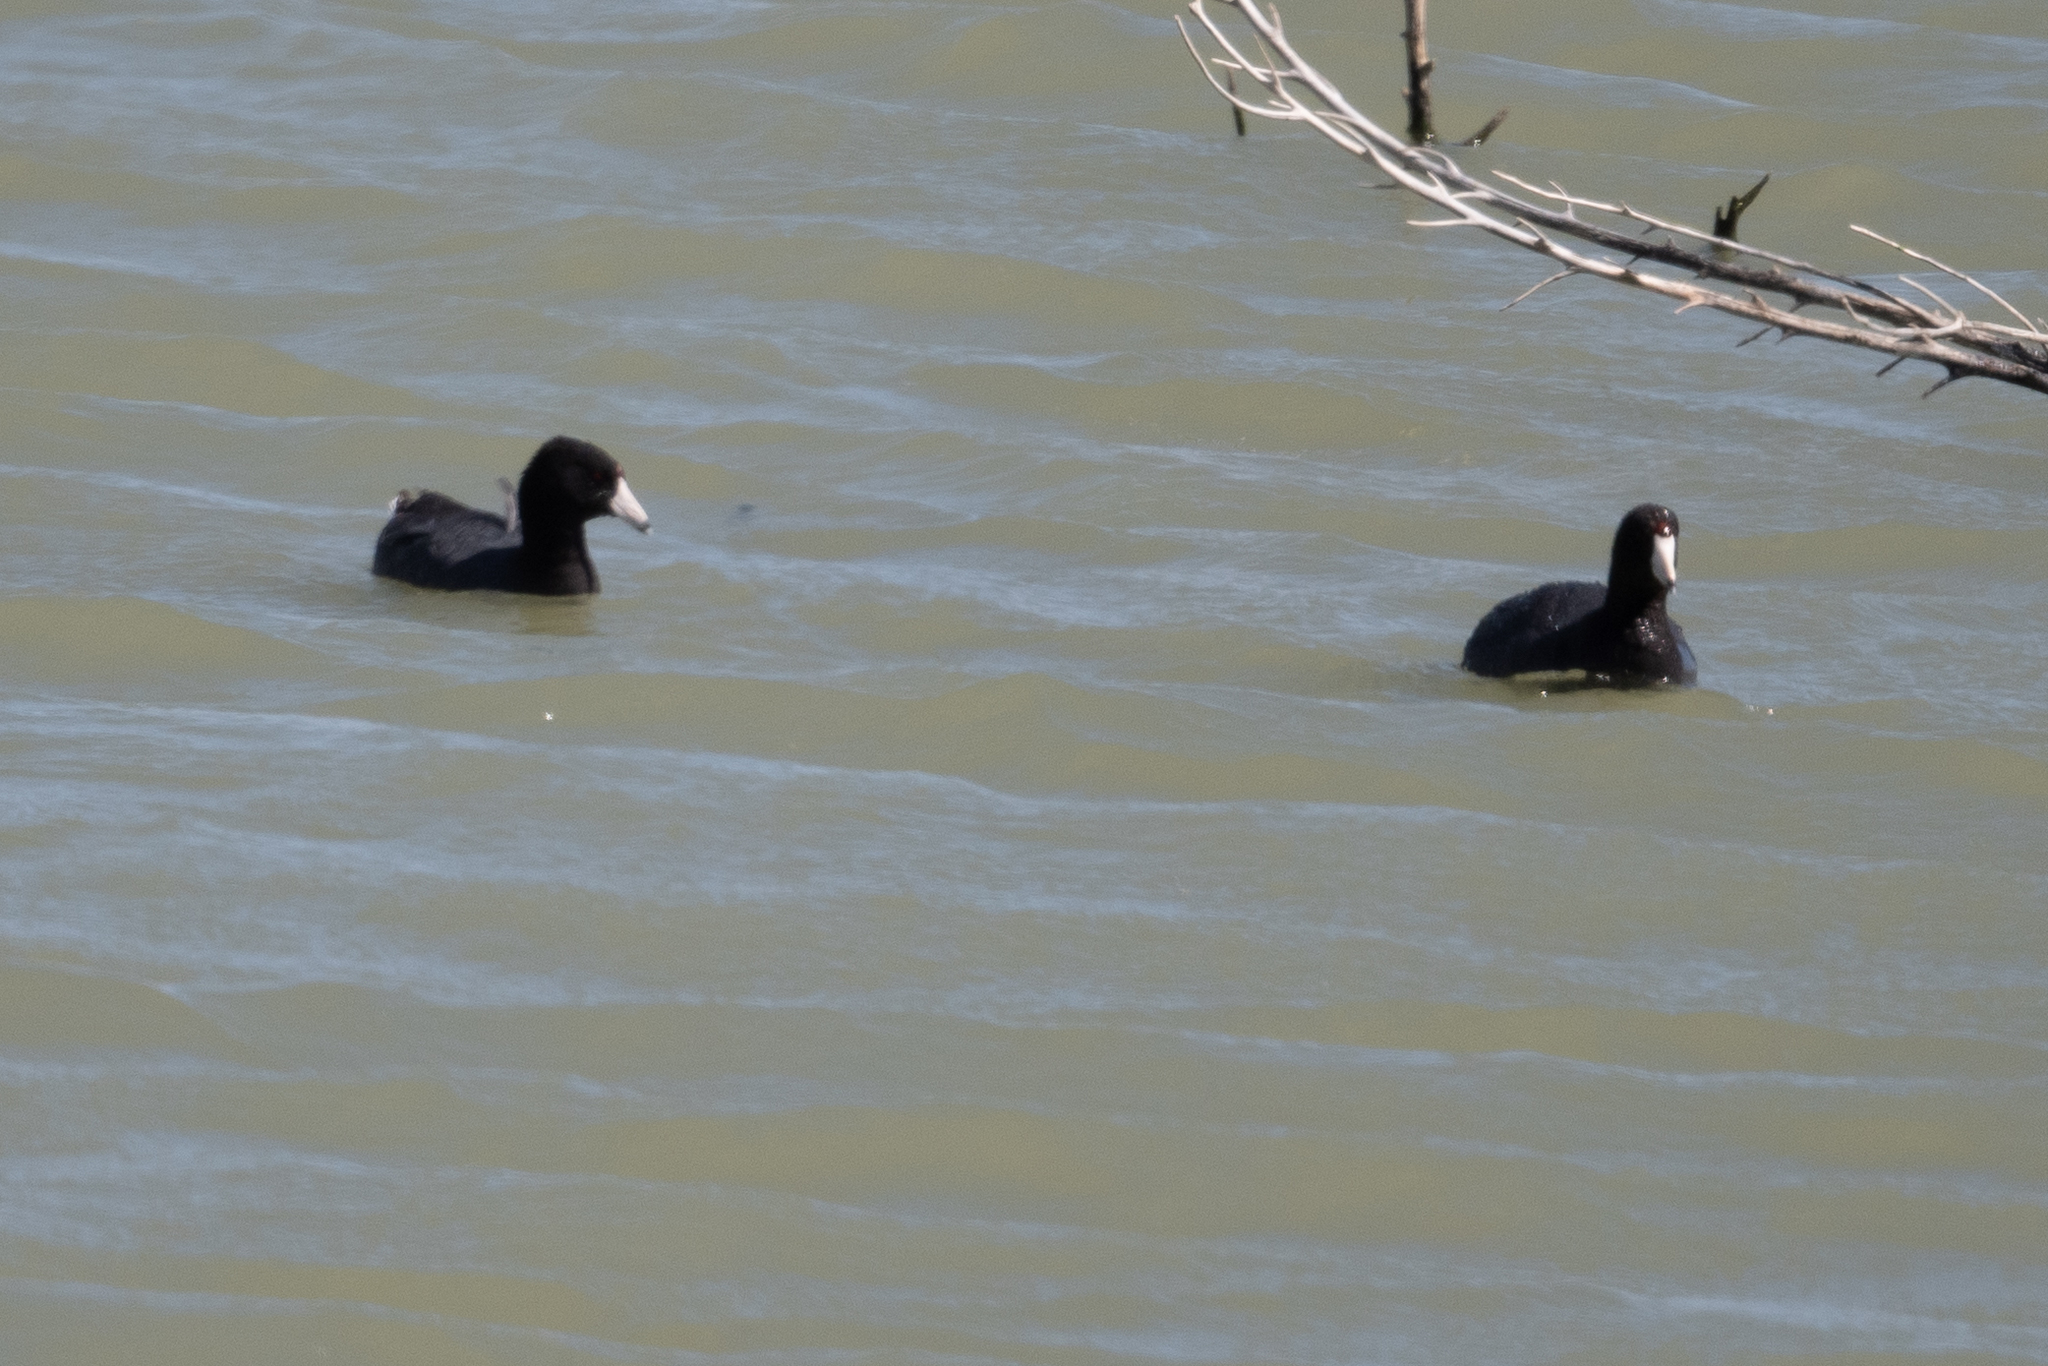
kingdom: Animalia
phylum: Chordata
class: Aves
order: Gruiformes
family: Rallidae
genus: Fulica
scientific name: Fulica americana
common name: American coot
